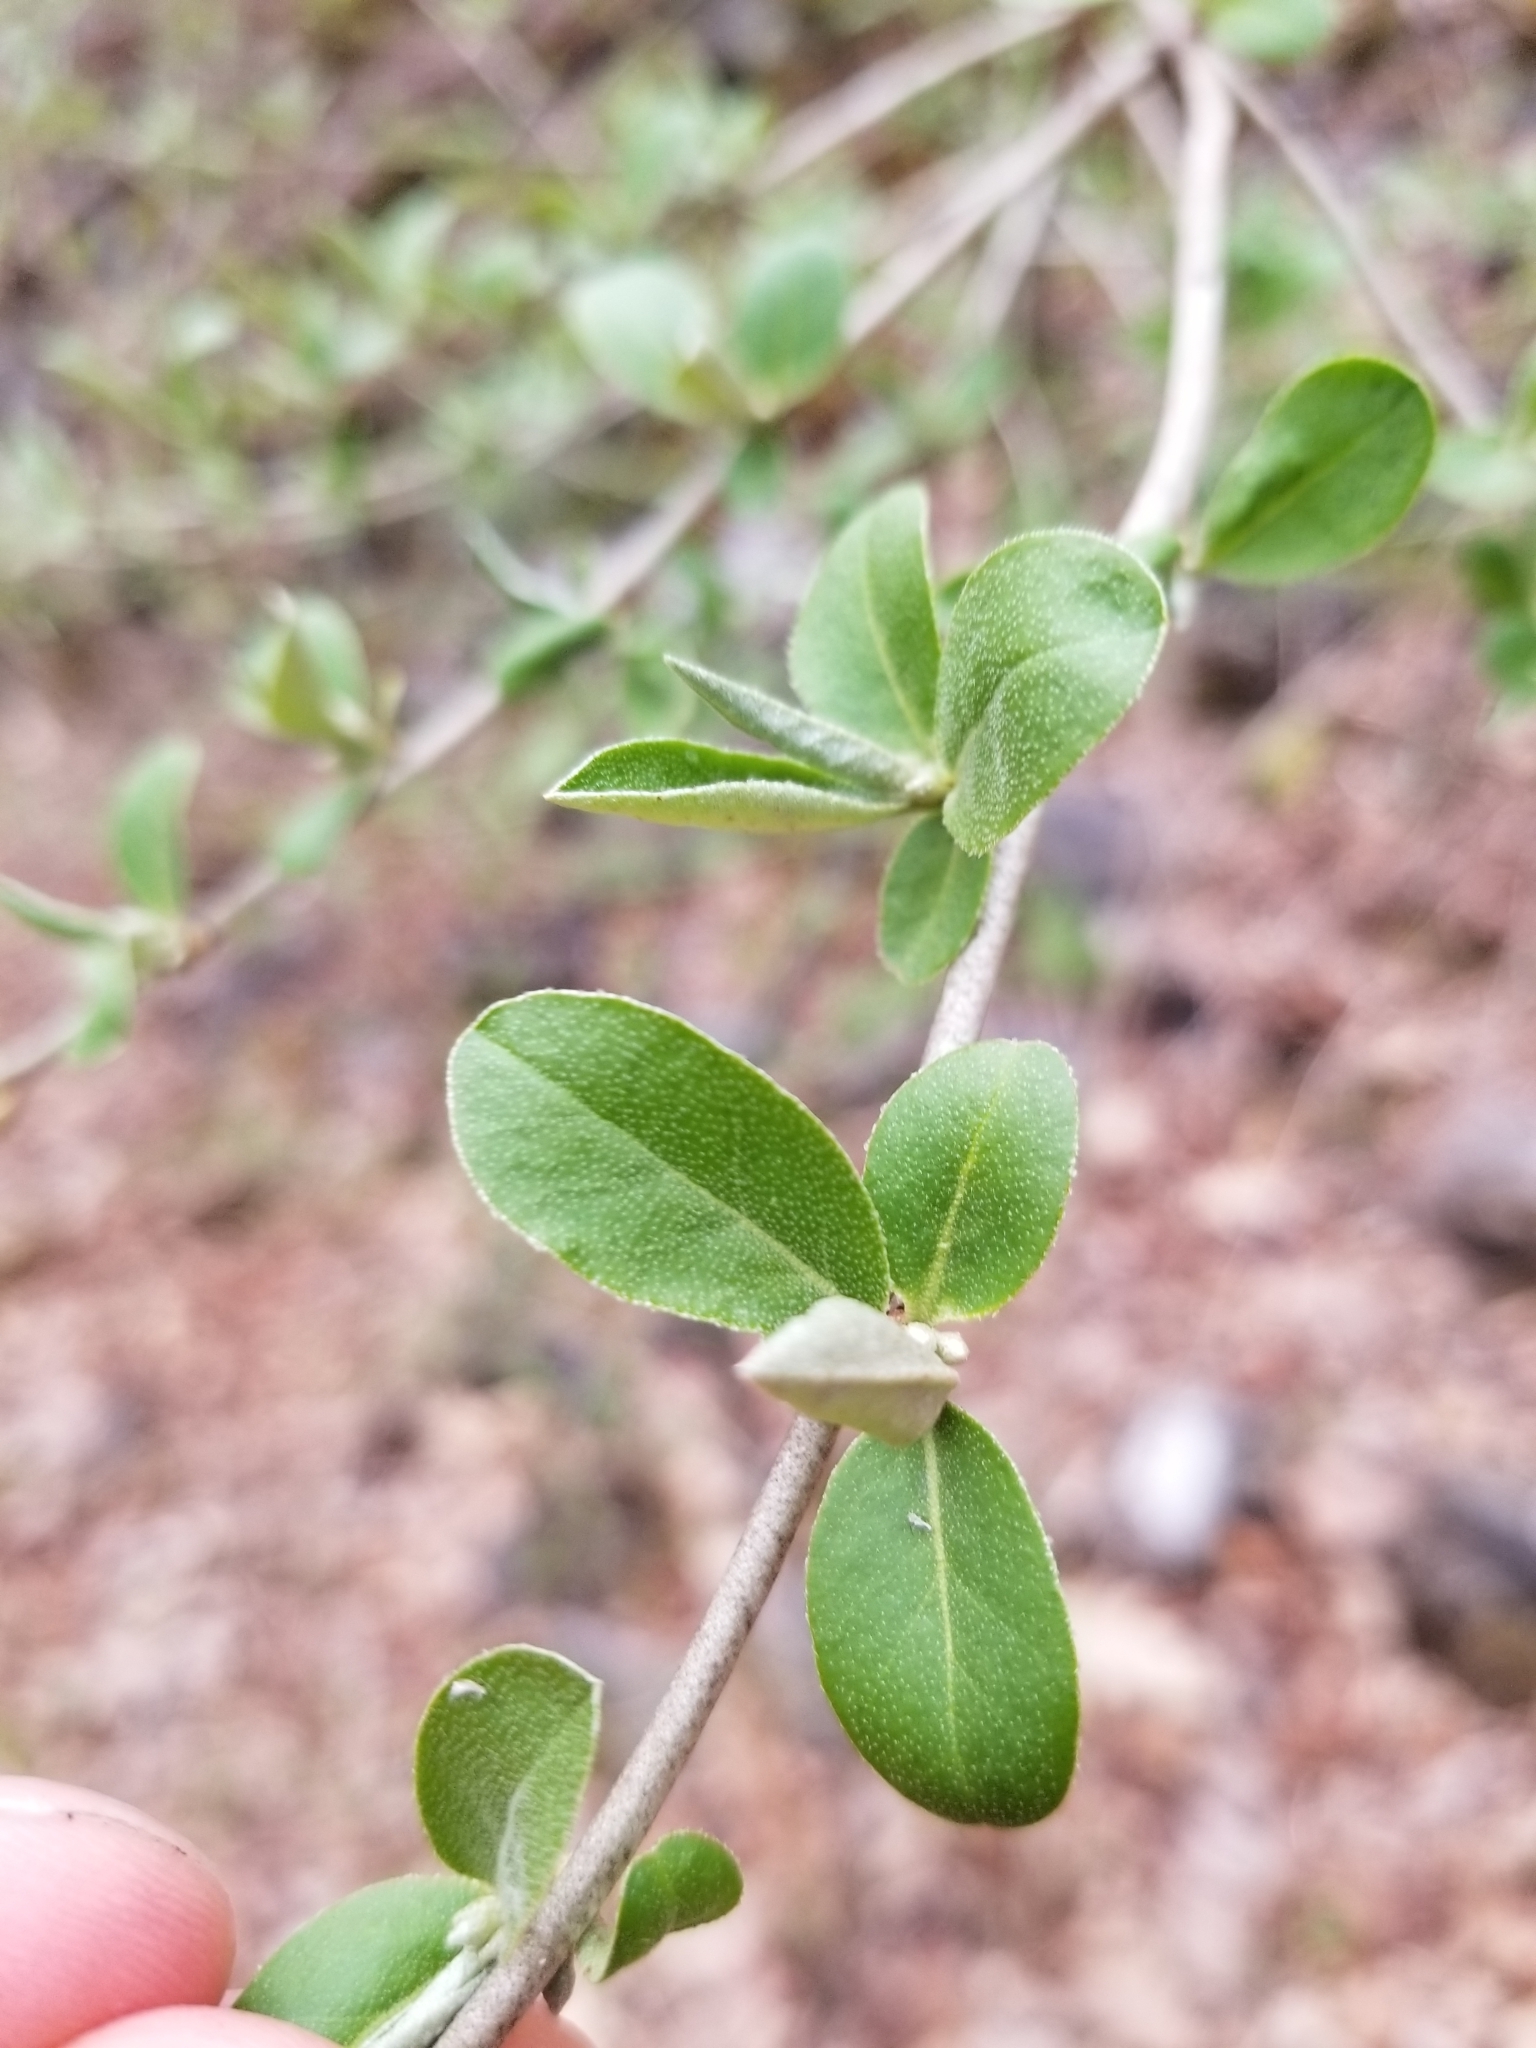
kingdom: Plantae
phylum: Tracheophyta
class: Magnoliopsida
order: Rosales
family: Elaeagnaceae
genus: Elaeagnus
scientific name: Elaeagnus umbellata
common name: Autumn olive
